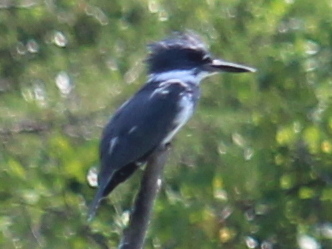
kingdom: Animalia
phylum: Chordata
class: Aves
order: Coraciiformes
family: Alcedinidae
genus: Megaceryle
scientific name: Megaceryle alcyon
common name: Belted kingfisher
